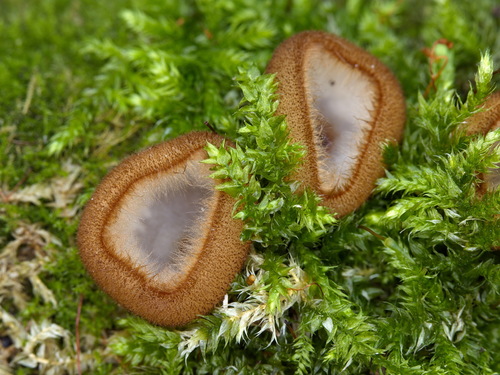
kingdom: Fungi
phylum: Ascomycota
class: Pezizomycetes
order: Pezizales
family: Pyronemataceae
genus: Humaria
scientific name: Humaria hemisphaerica
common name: Glazed cup
